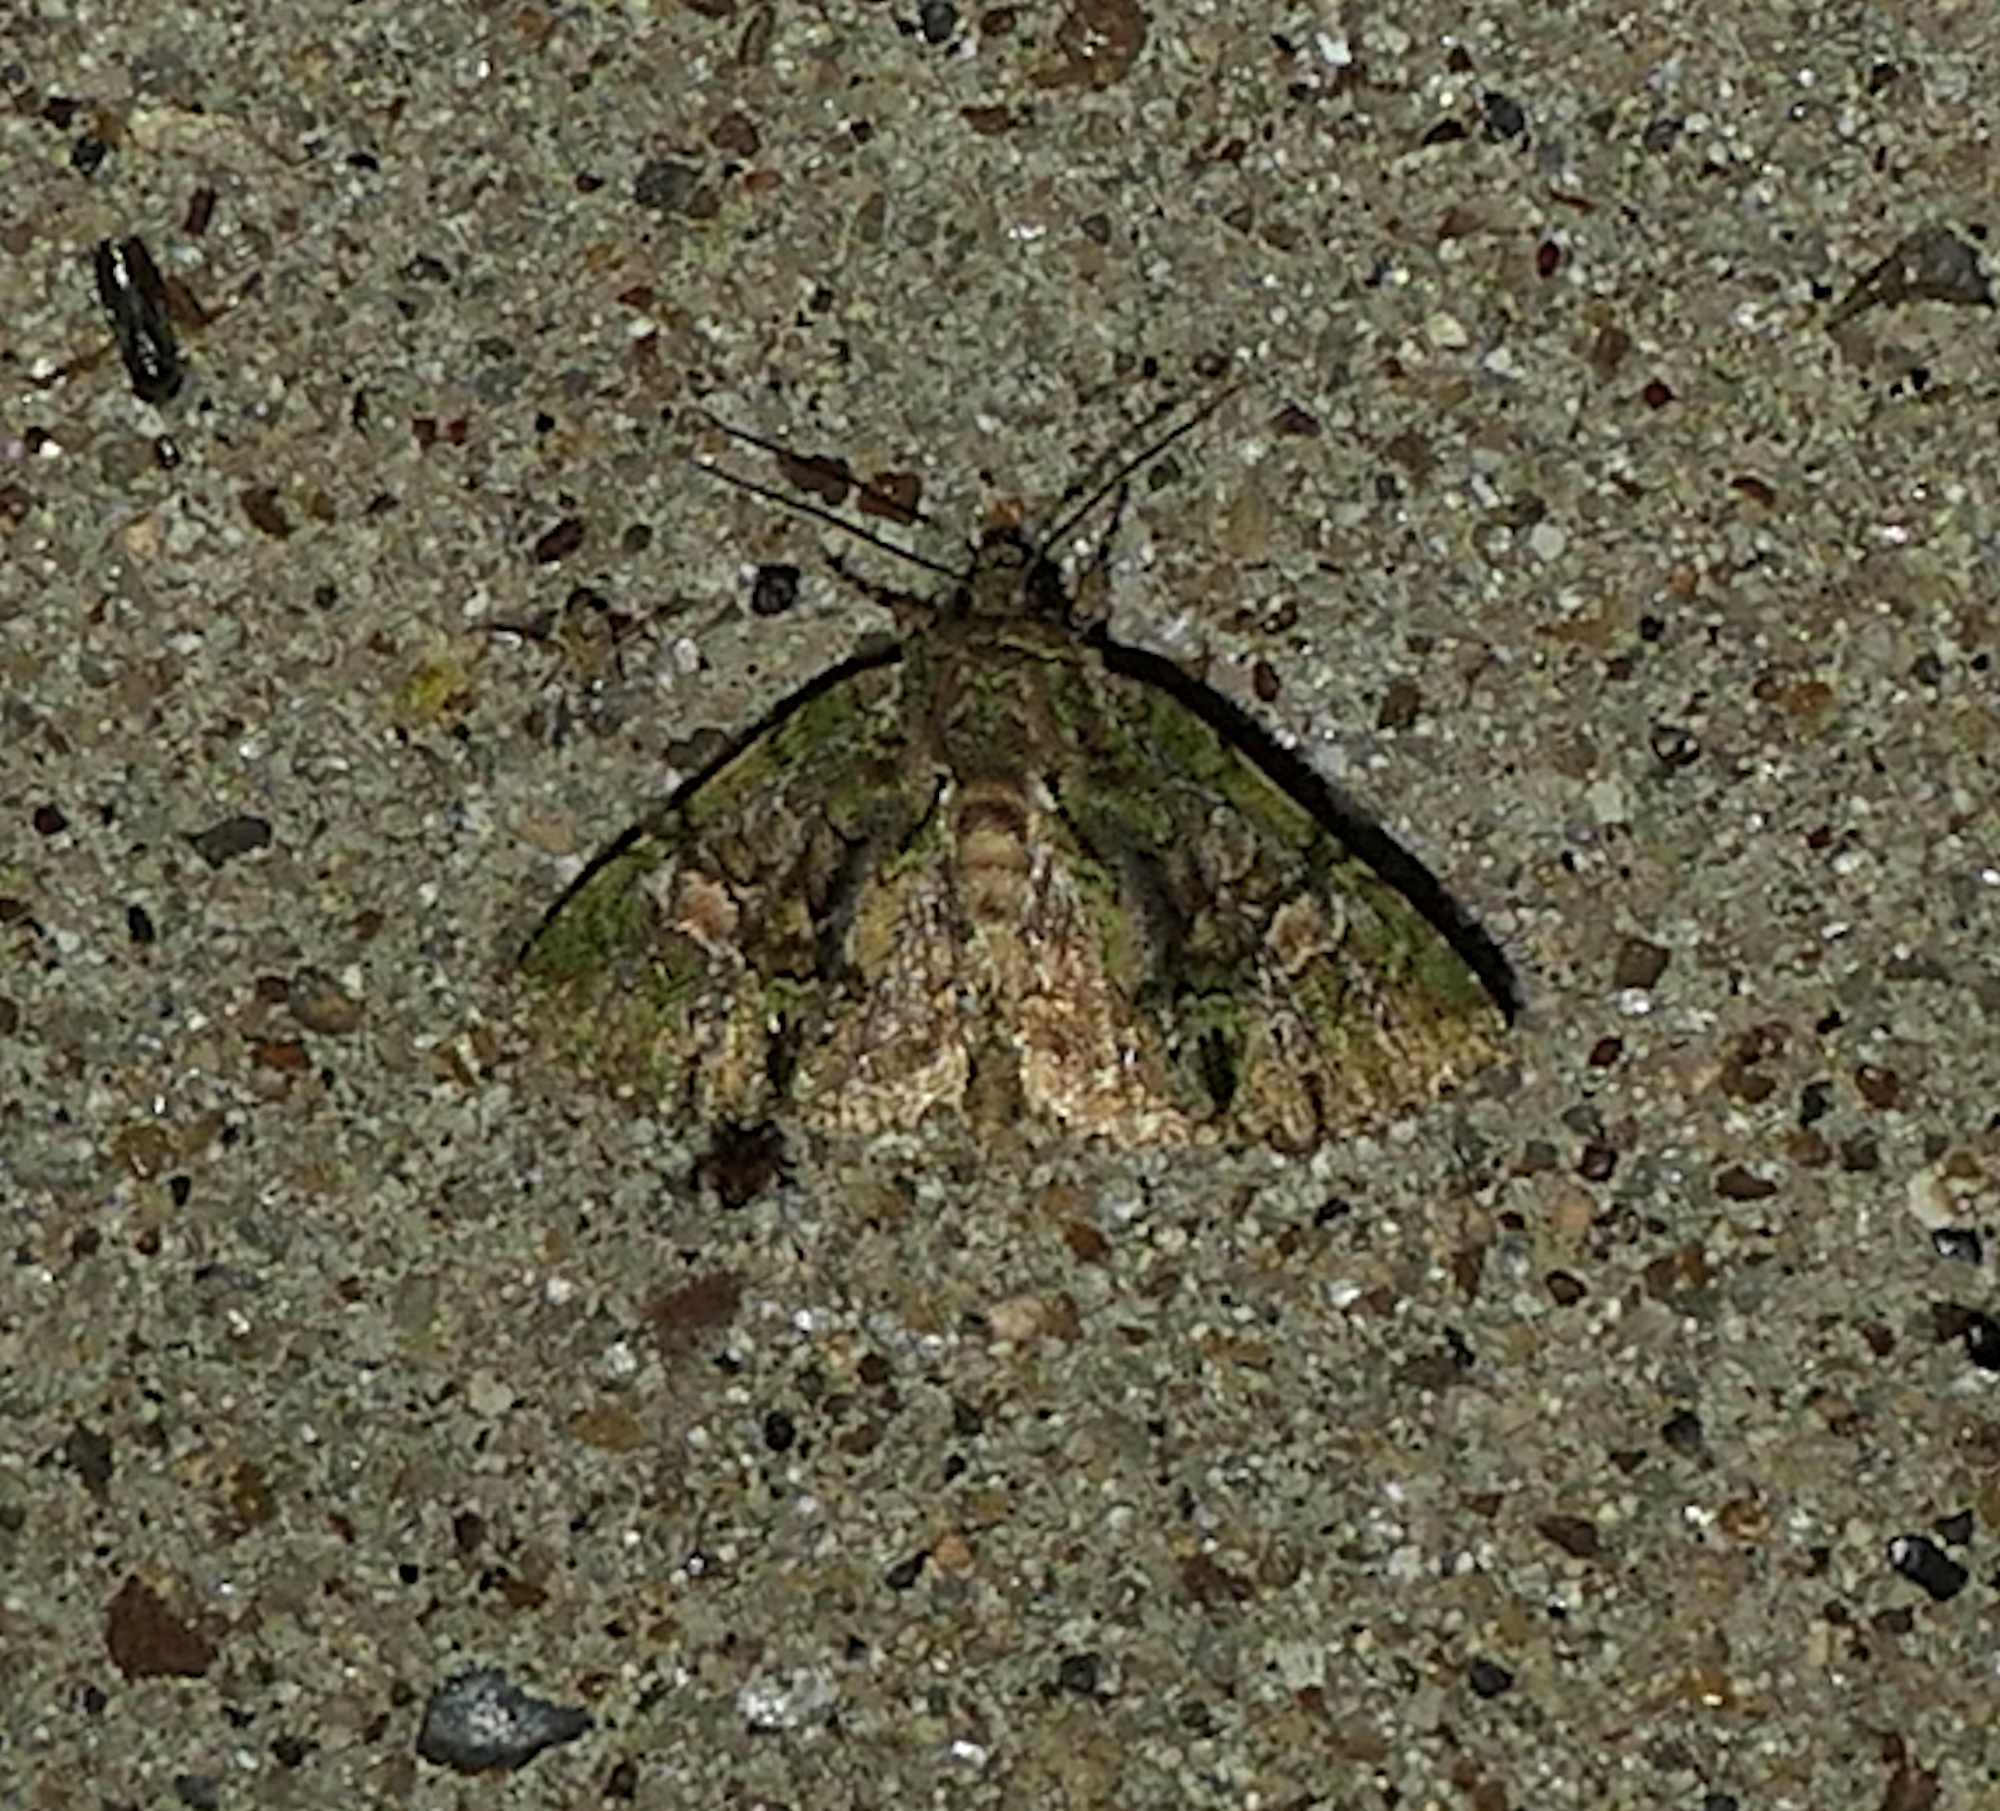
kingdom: Animalia
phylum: Arthropoda
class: Insecta
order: Lepidoptera
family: Noctuidae
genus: Phosphila
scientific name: Phosphila miselioides
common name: Spotted phosphila moth
